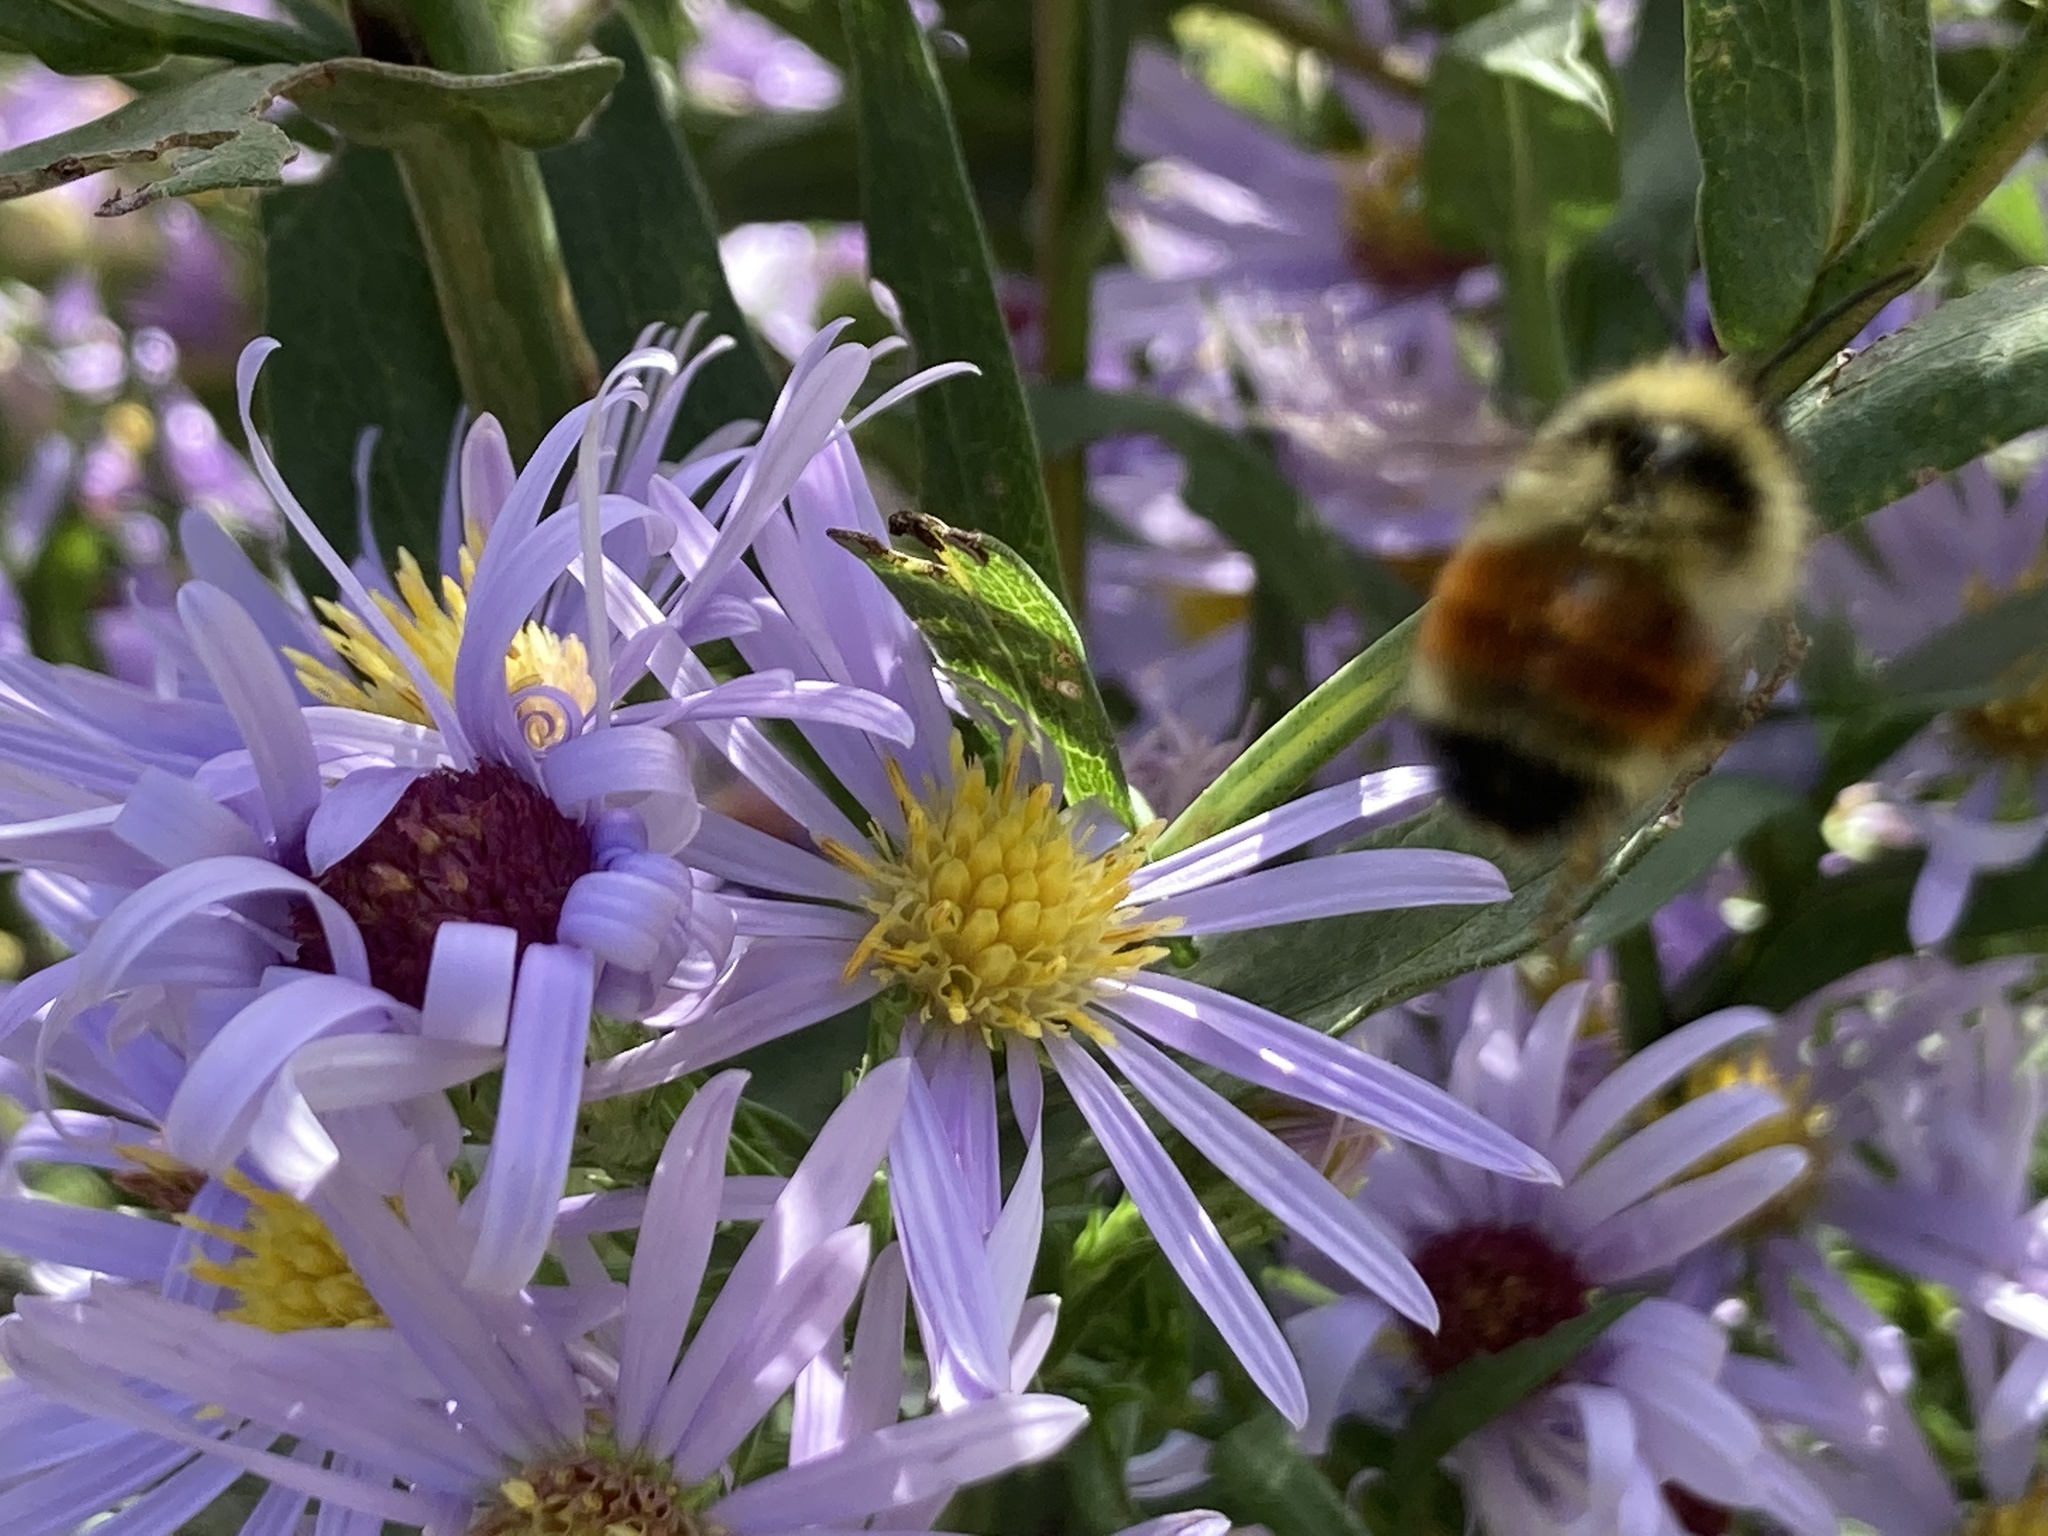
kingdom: Animalia
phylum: Arthropoda
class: Insecta
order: Hymenoptera
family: Apidae
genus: Bombus
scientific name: Bombus ternarius
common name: Tri-colored bumble bee
